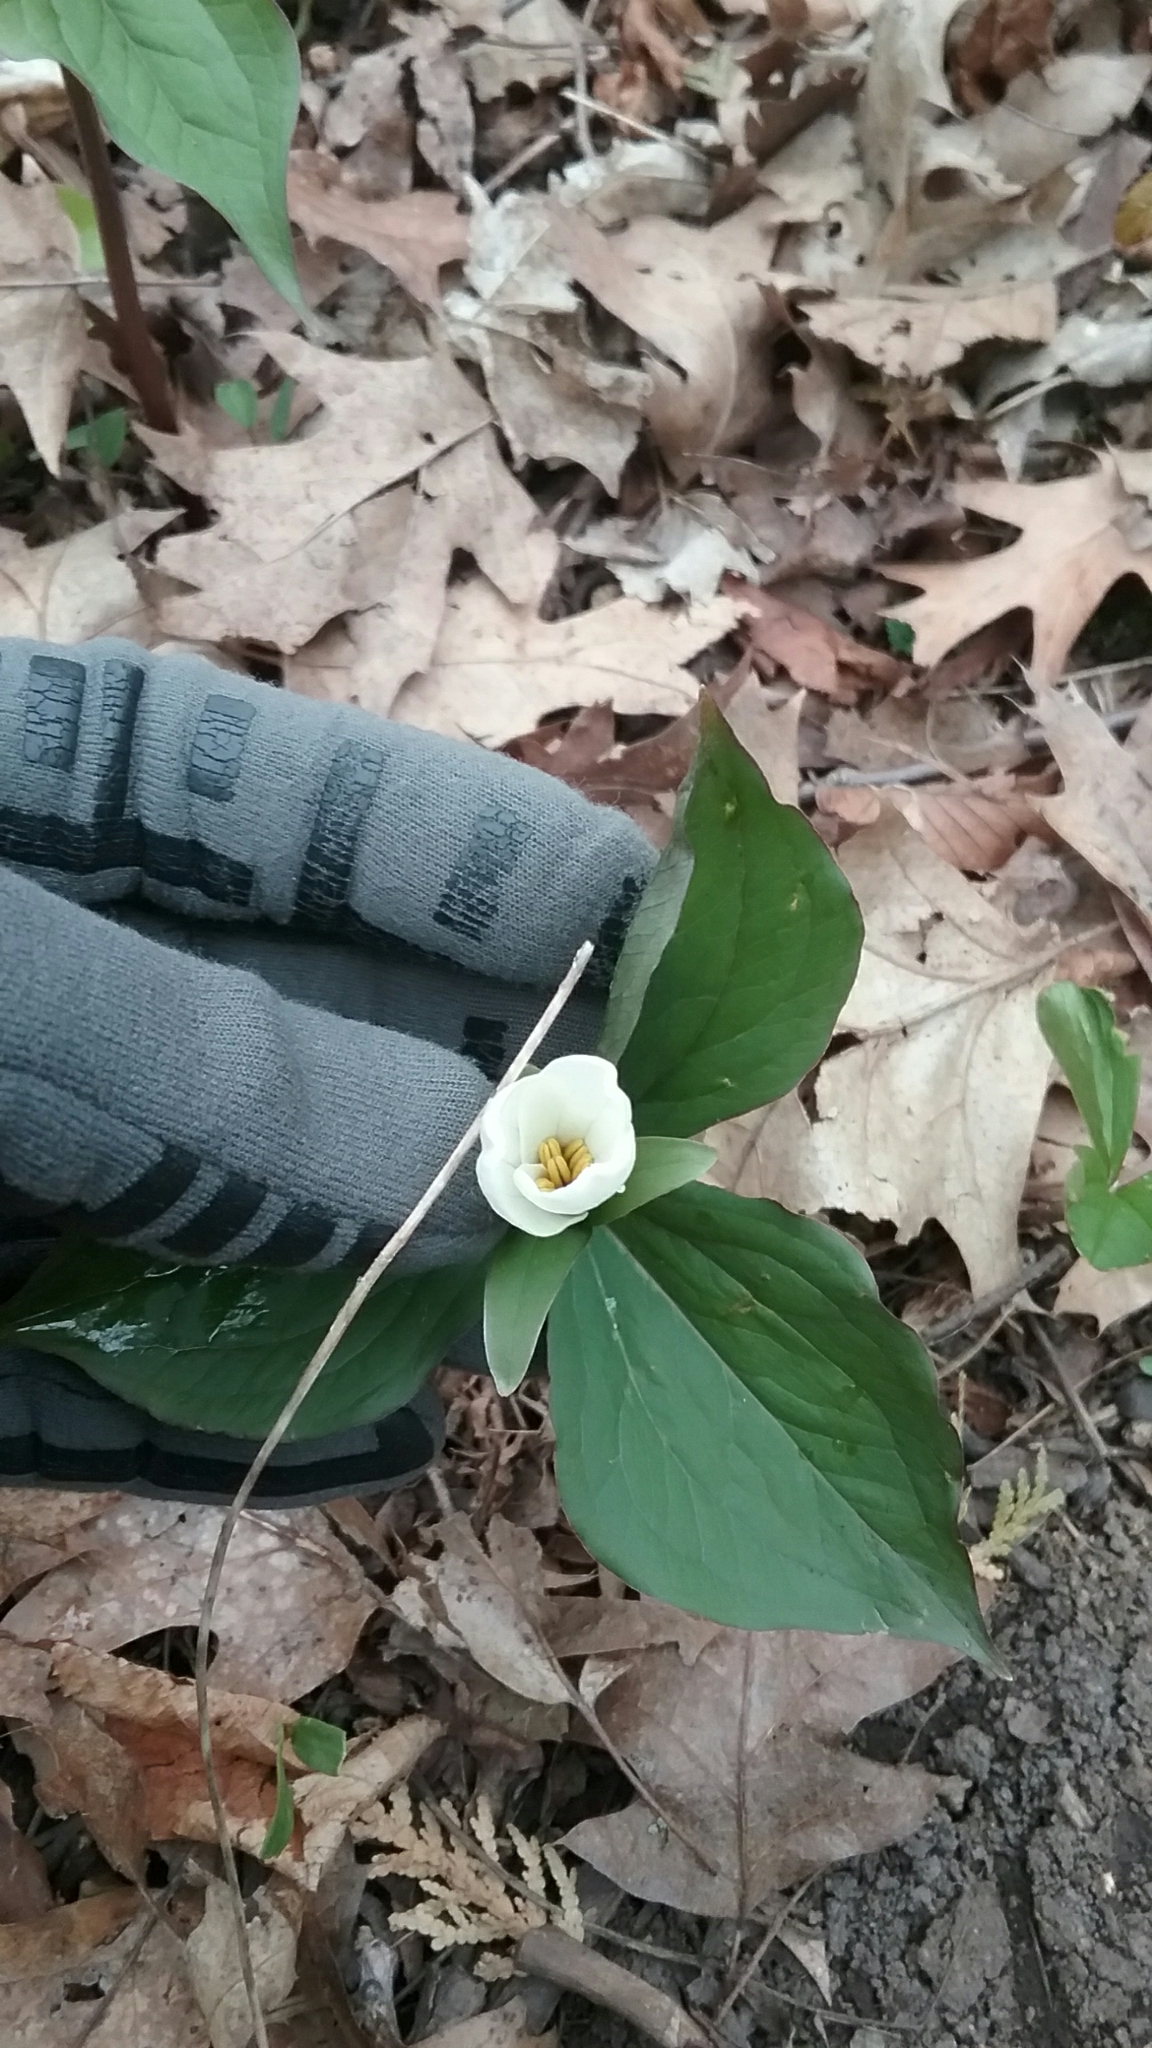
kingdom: Plantae
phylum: Tracheophyta
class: Liliopsida
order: Liliales
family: Melanthiaceae
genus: Trillium
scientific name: Trillium grandiflorum
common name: Great white trillium
